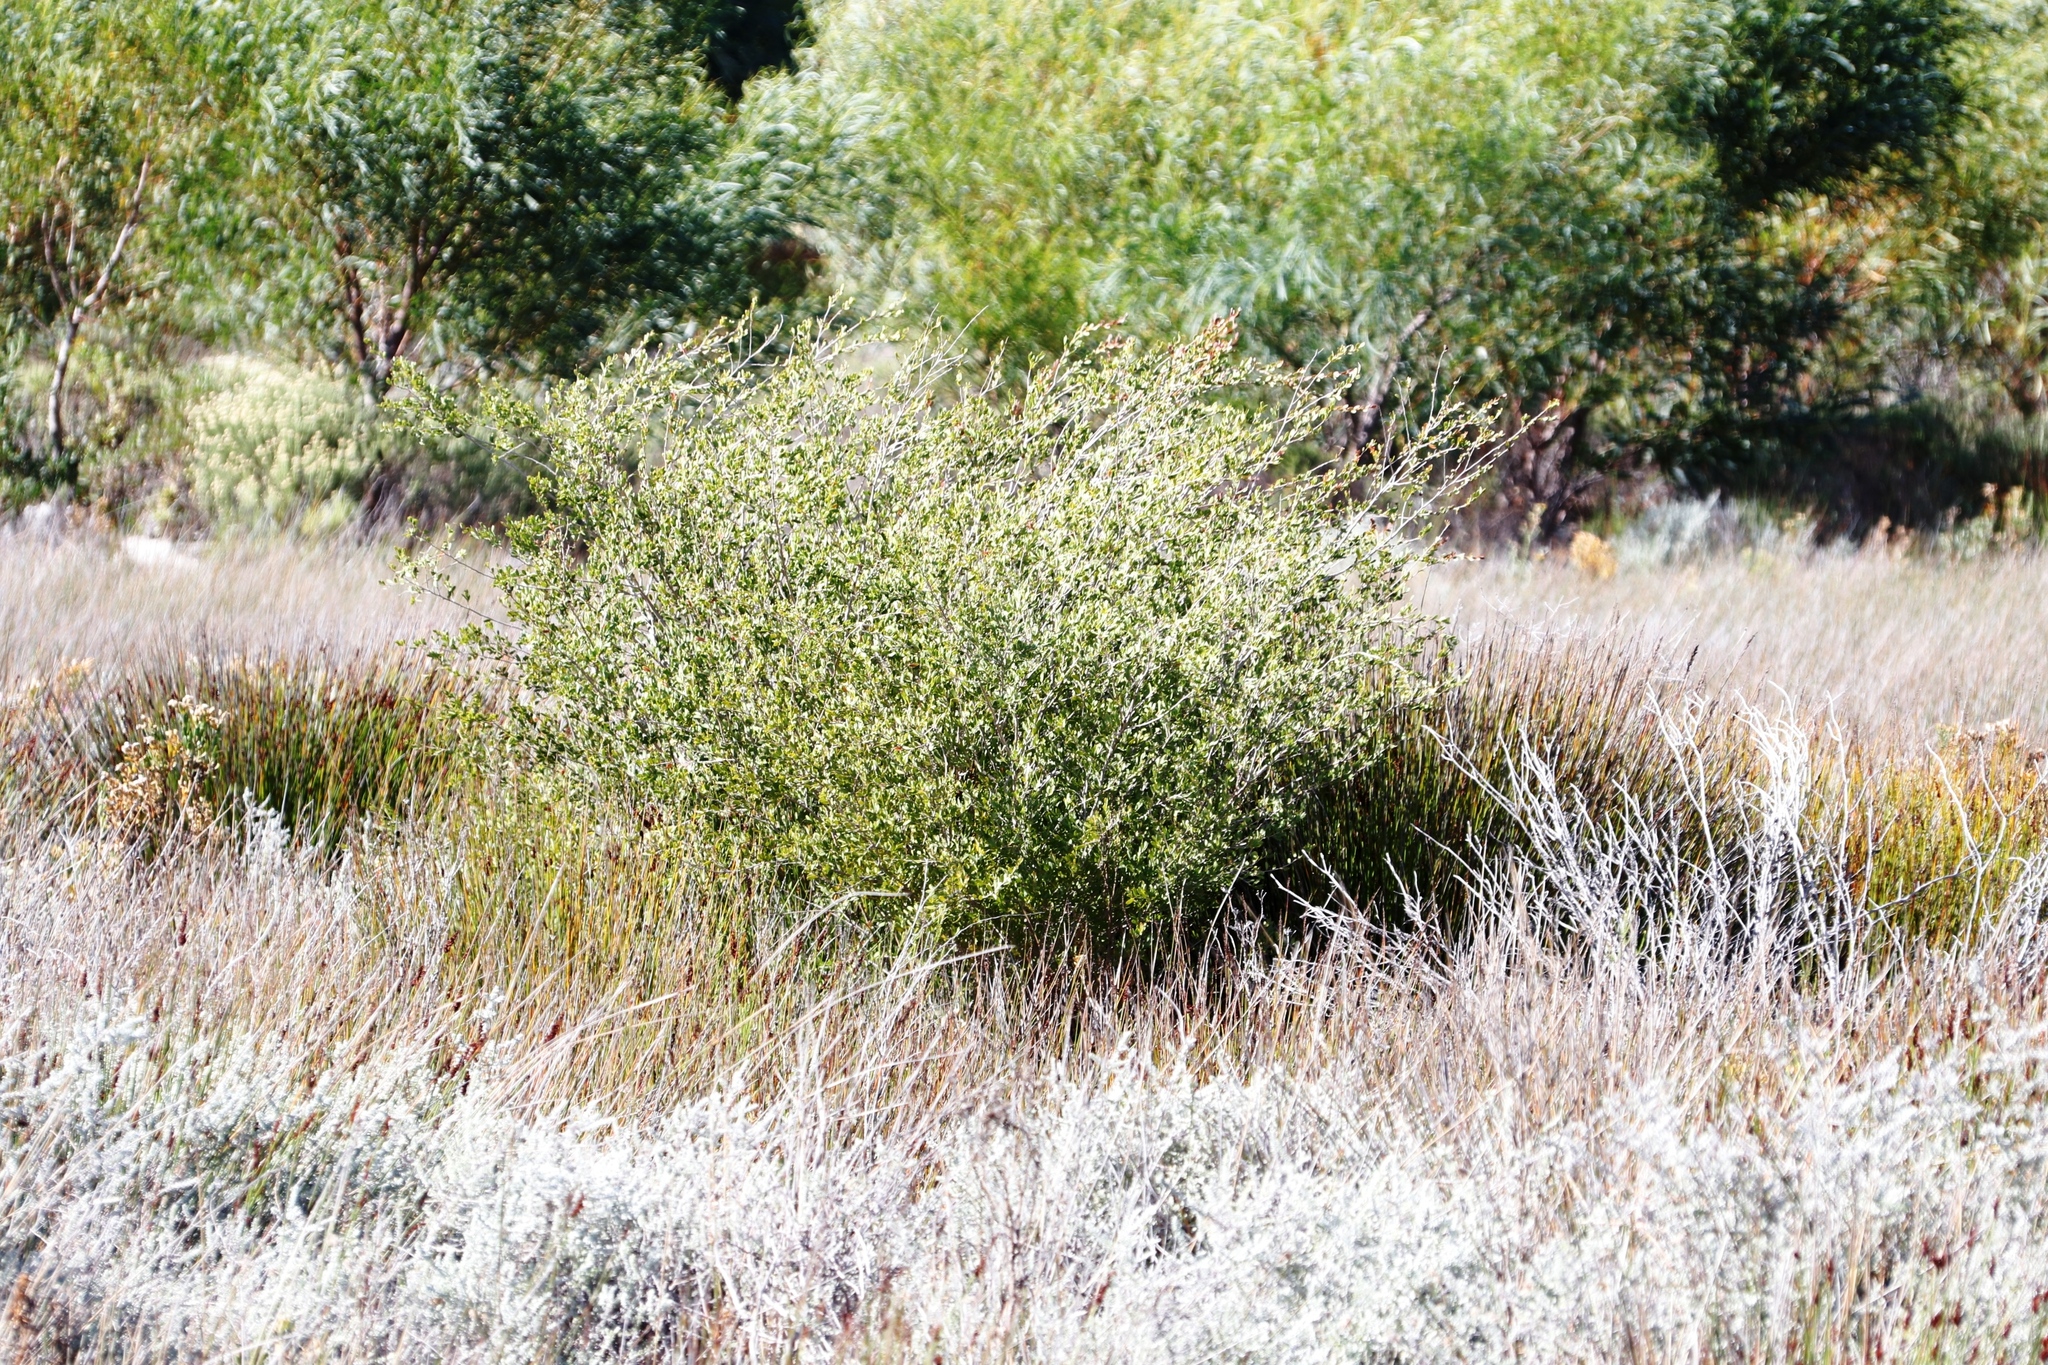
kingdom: Plantae
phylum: Tracheophyta
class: Magnoliopsida
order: Myrtales
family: Myrtaceae
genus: Leptospermum
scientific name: Leptospermum laevigatum
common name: Australian teatree
